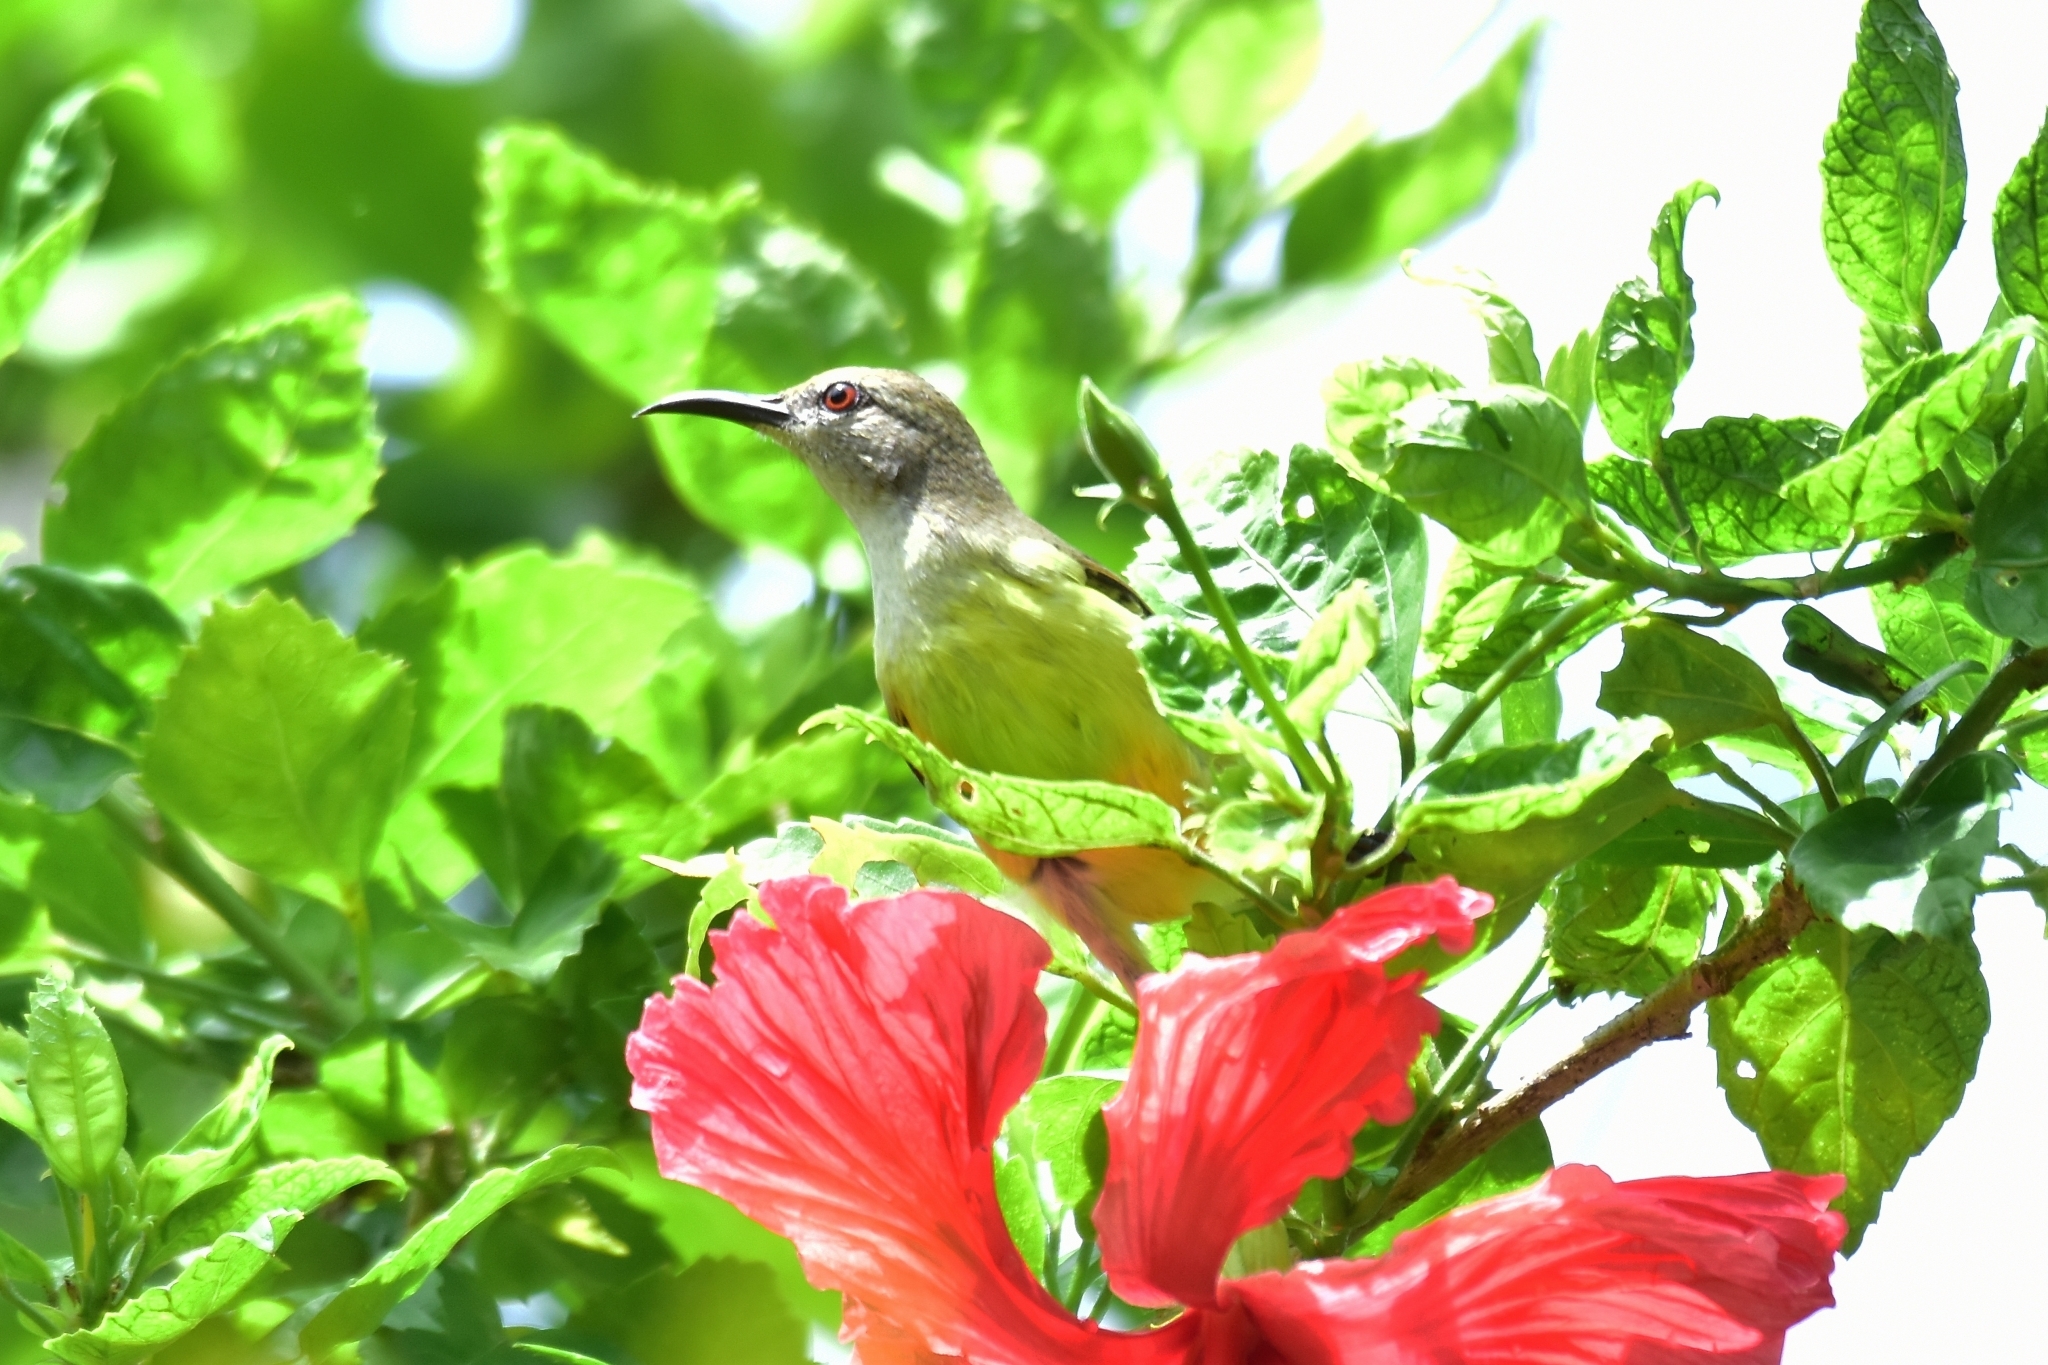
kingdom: Animalia
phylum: Chordata
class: Aves
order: Passeriformes
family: Nectariniidae
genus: Leptocoma
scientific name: Leptocoma zeylonica
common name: Purple-rumped sunbird
